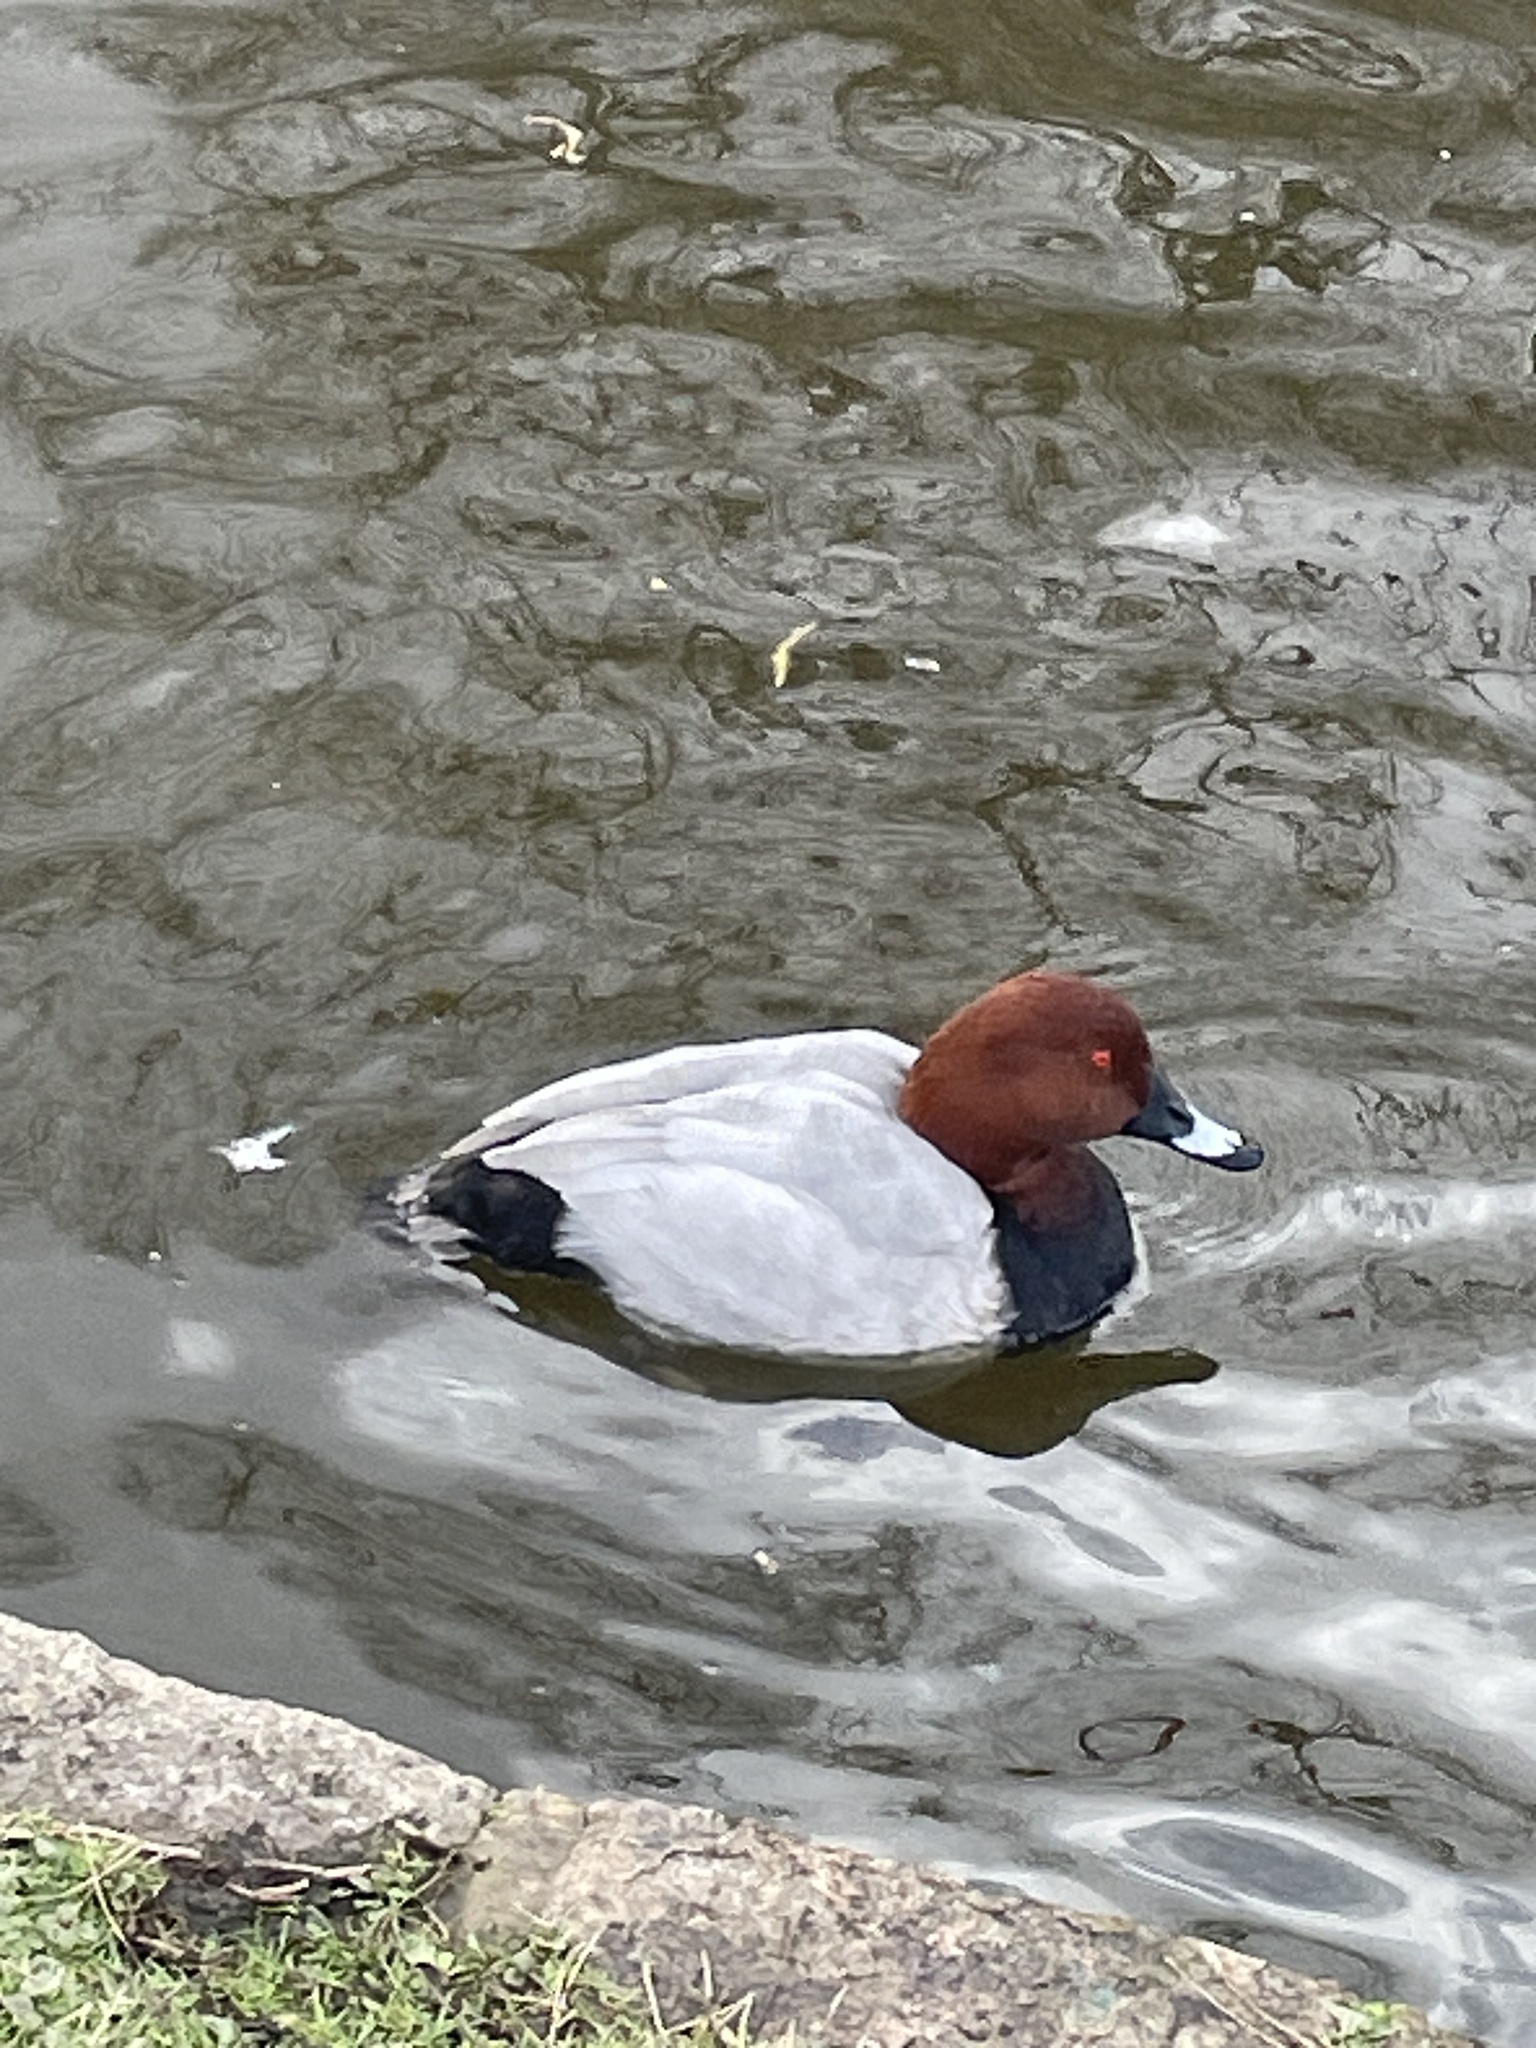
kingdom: Animalia
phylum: Chordata
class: Aves
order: Anseriformes
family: Anatidae
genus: Aythya
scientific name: Aythya ferina
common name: Common pochard
